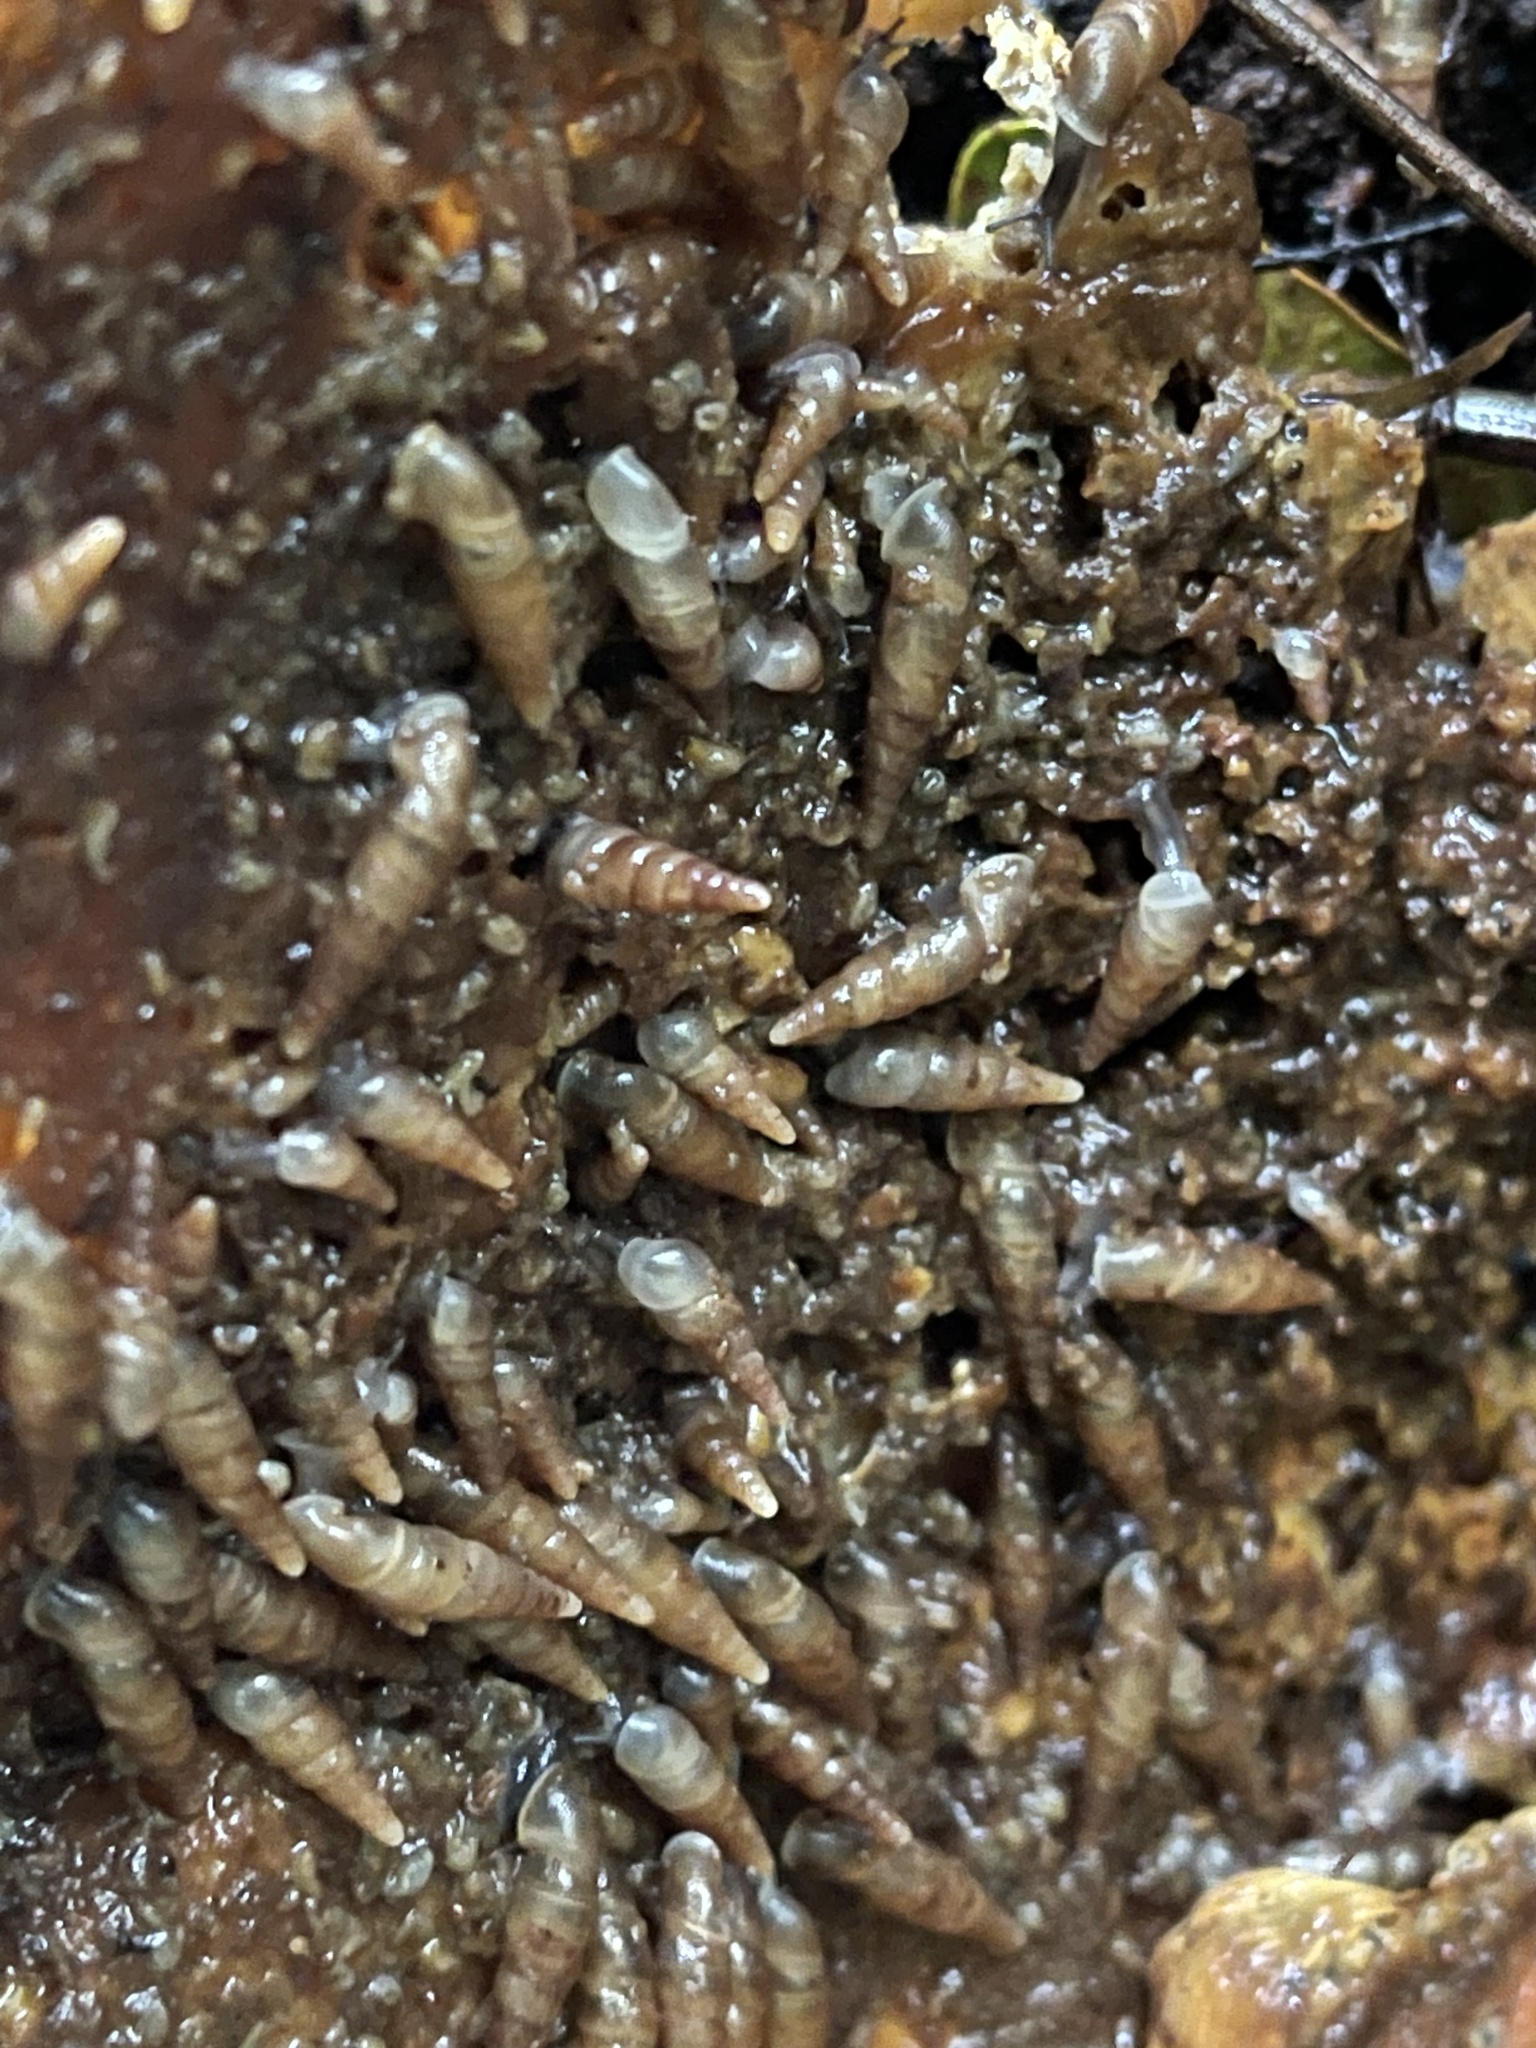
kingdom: Animalia
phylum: Mollusca
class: Gastropoda
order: Stylommatophora
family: Clausiliidae
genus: Tauphaedusa
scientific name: Tauphaedusa tau
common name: Snail
